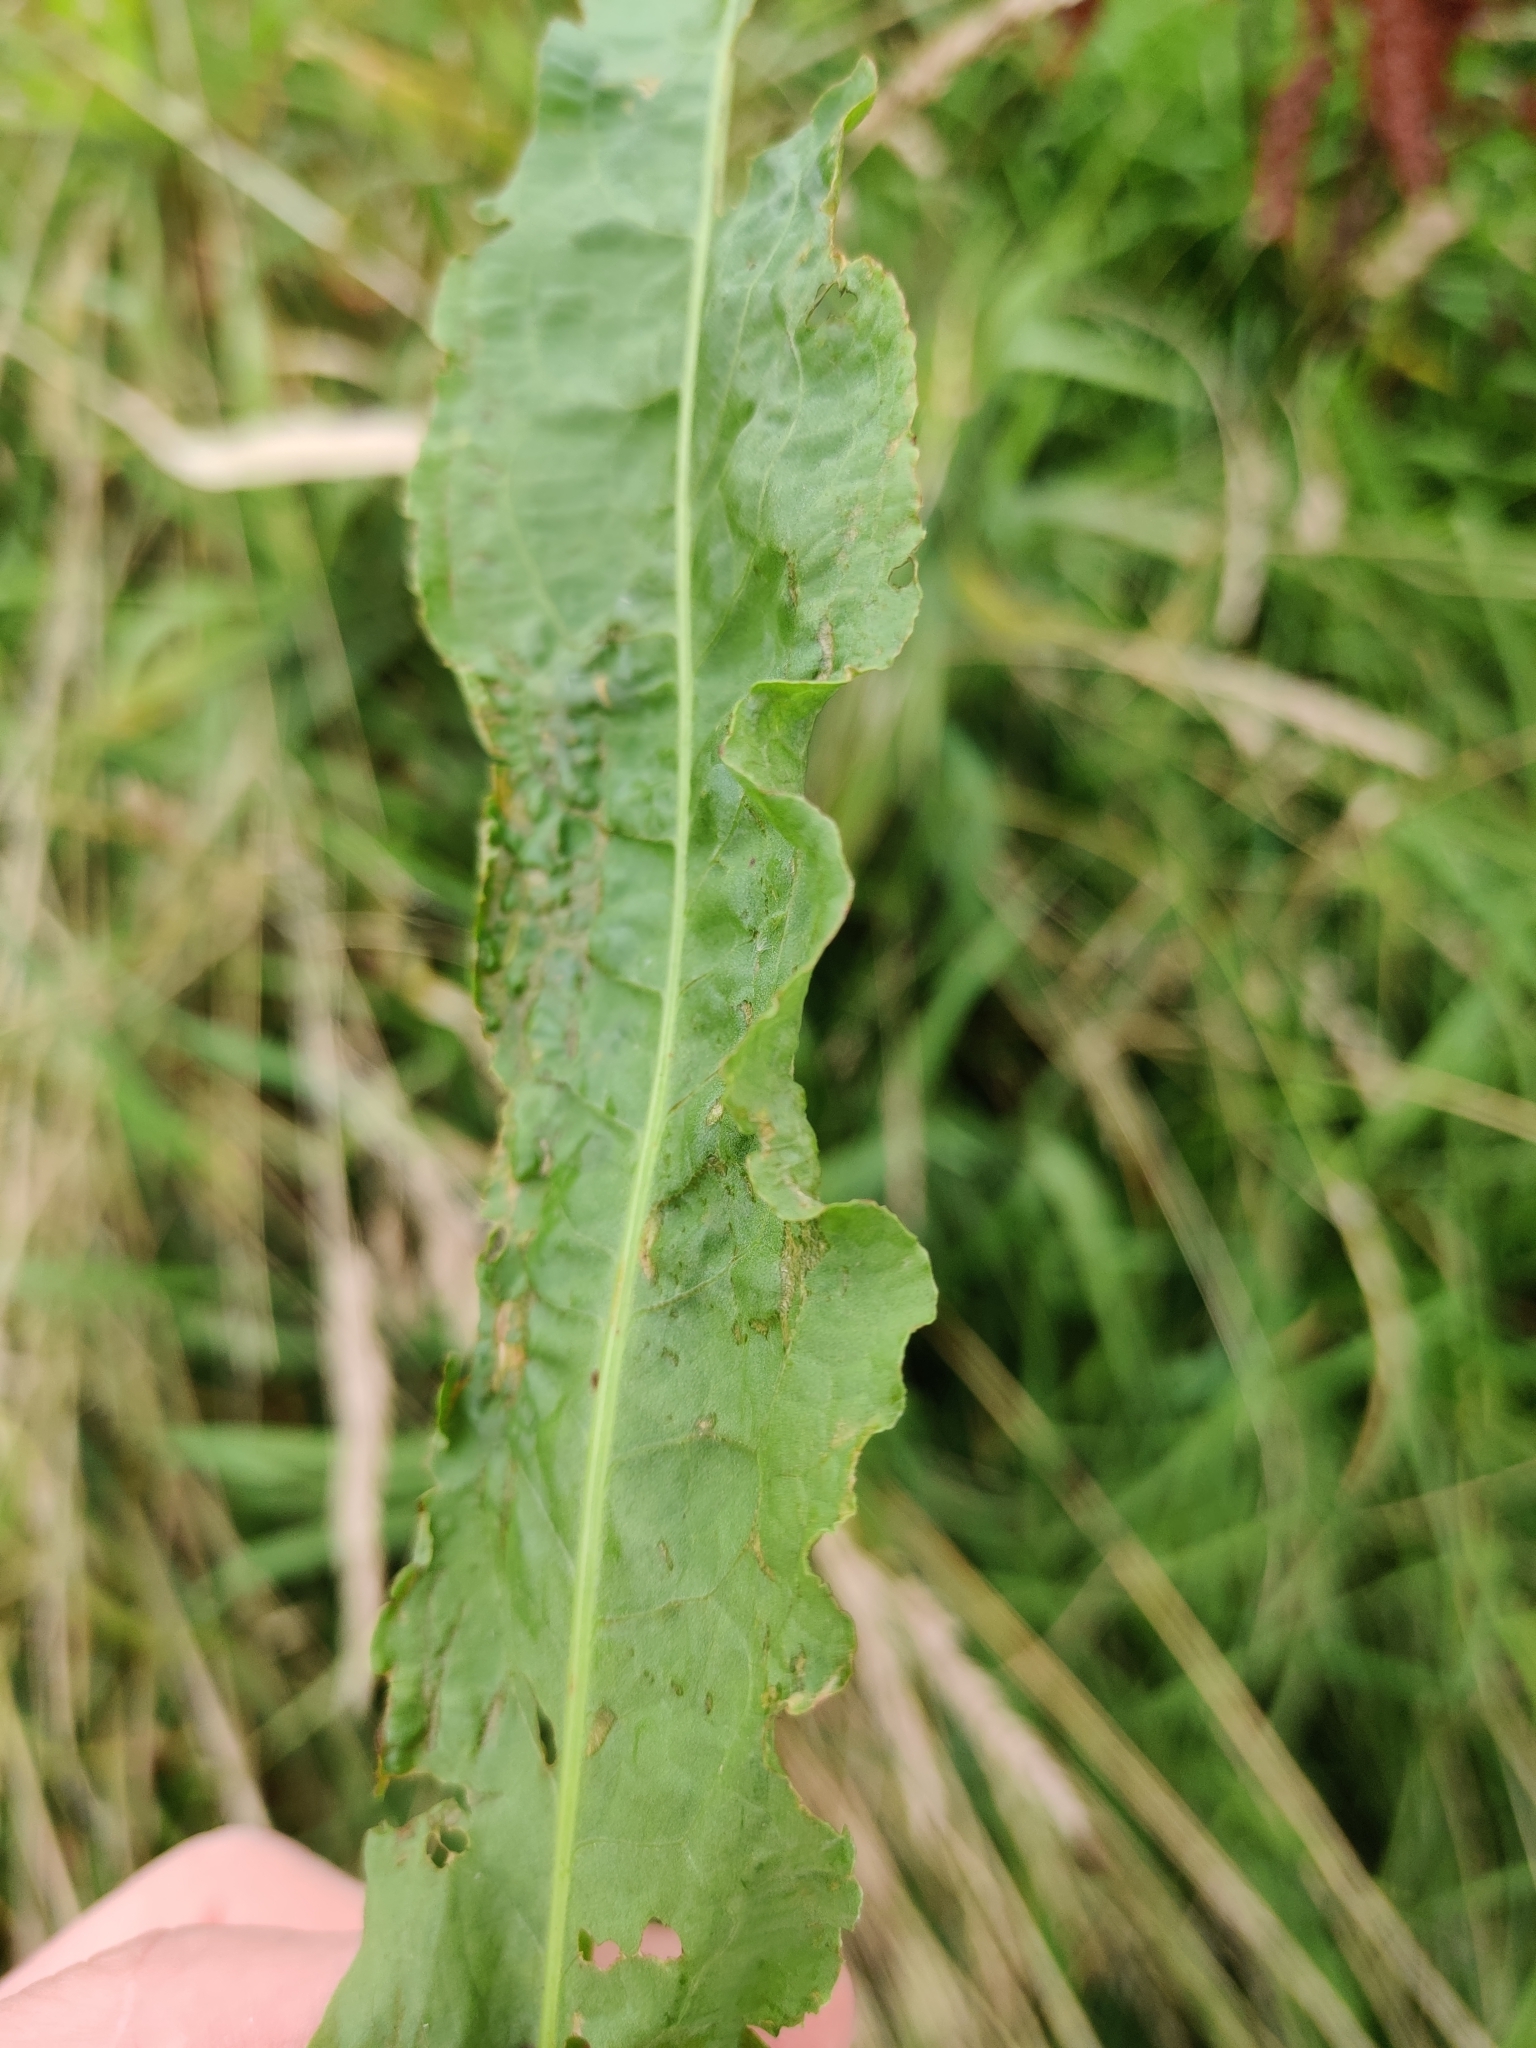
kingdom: Plantae
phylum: Tracheophyta
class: Magnoliopsida
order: Caryophyllales
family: Polygonaceae
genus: Rumex
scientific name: Rumex crispus
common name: Curled dock
